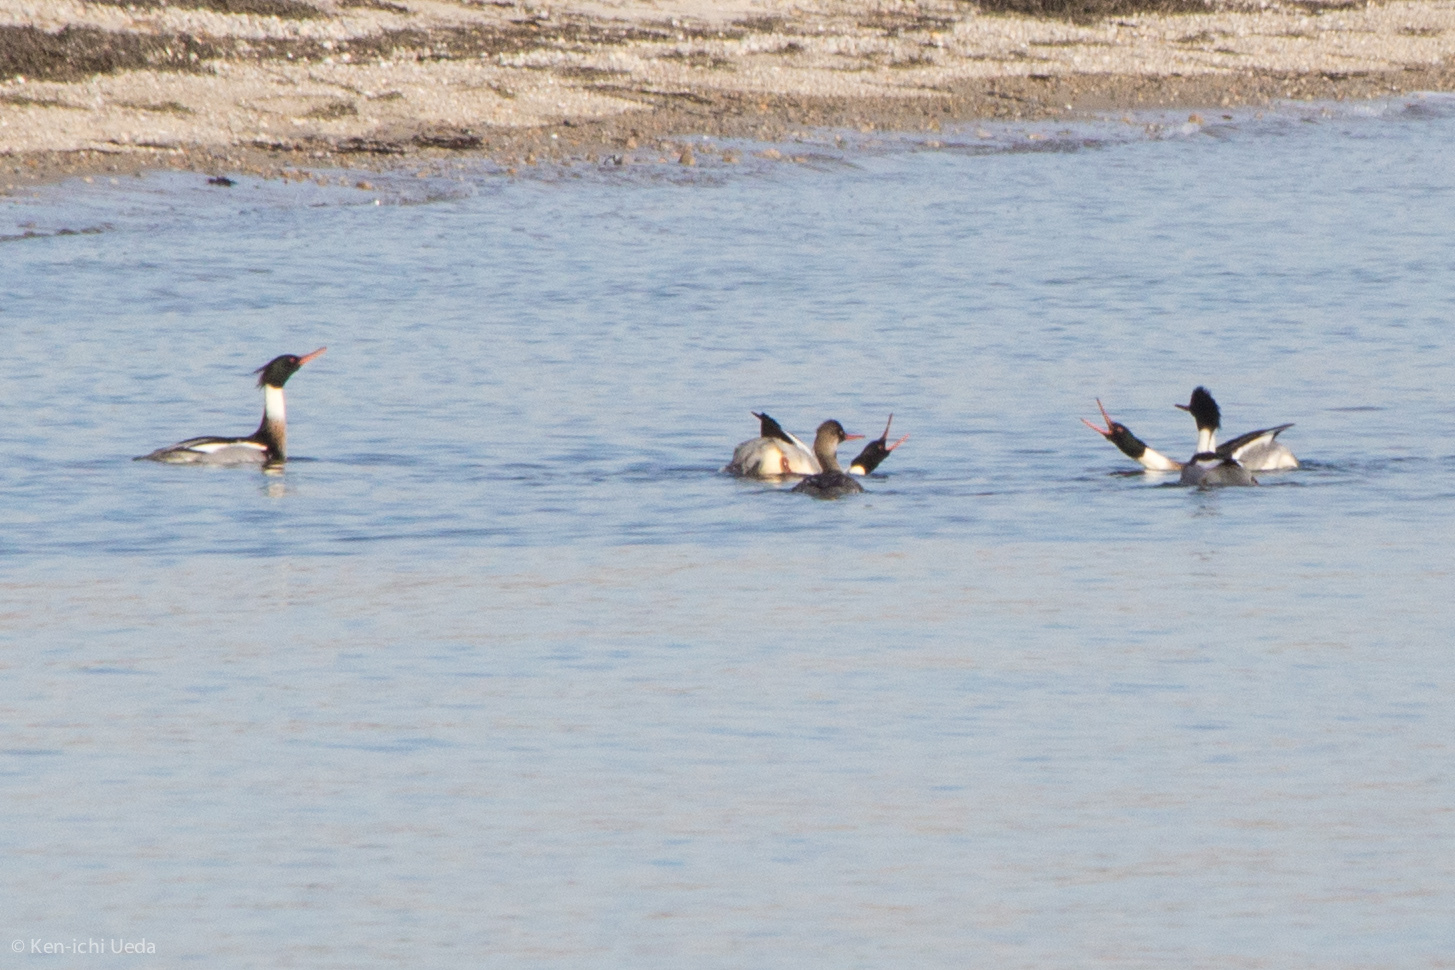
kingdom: Animalia
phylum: Chordata
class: Aves
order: Anseriformes
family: Anatidae
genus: Mergus
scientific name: Mergus serrator
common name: Red-breasted merganser
